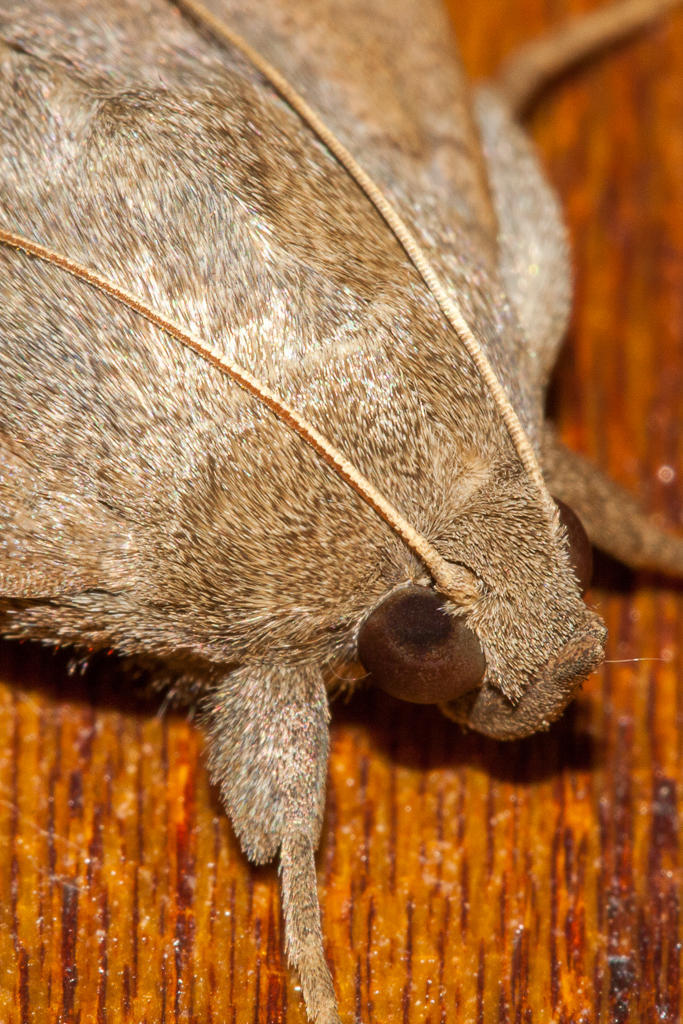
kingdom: Animalia
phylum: Arthropoda
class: Insecta
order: Lepidoptera
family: Erebidae
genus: Achaea
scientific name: Achaea indeterminata
